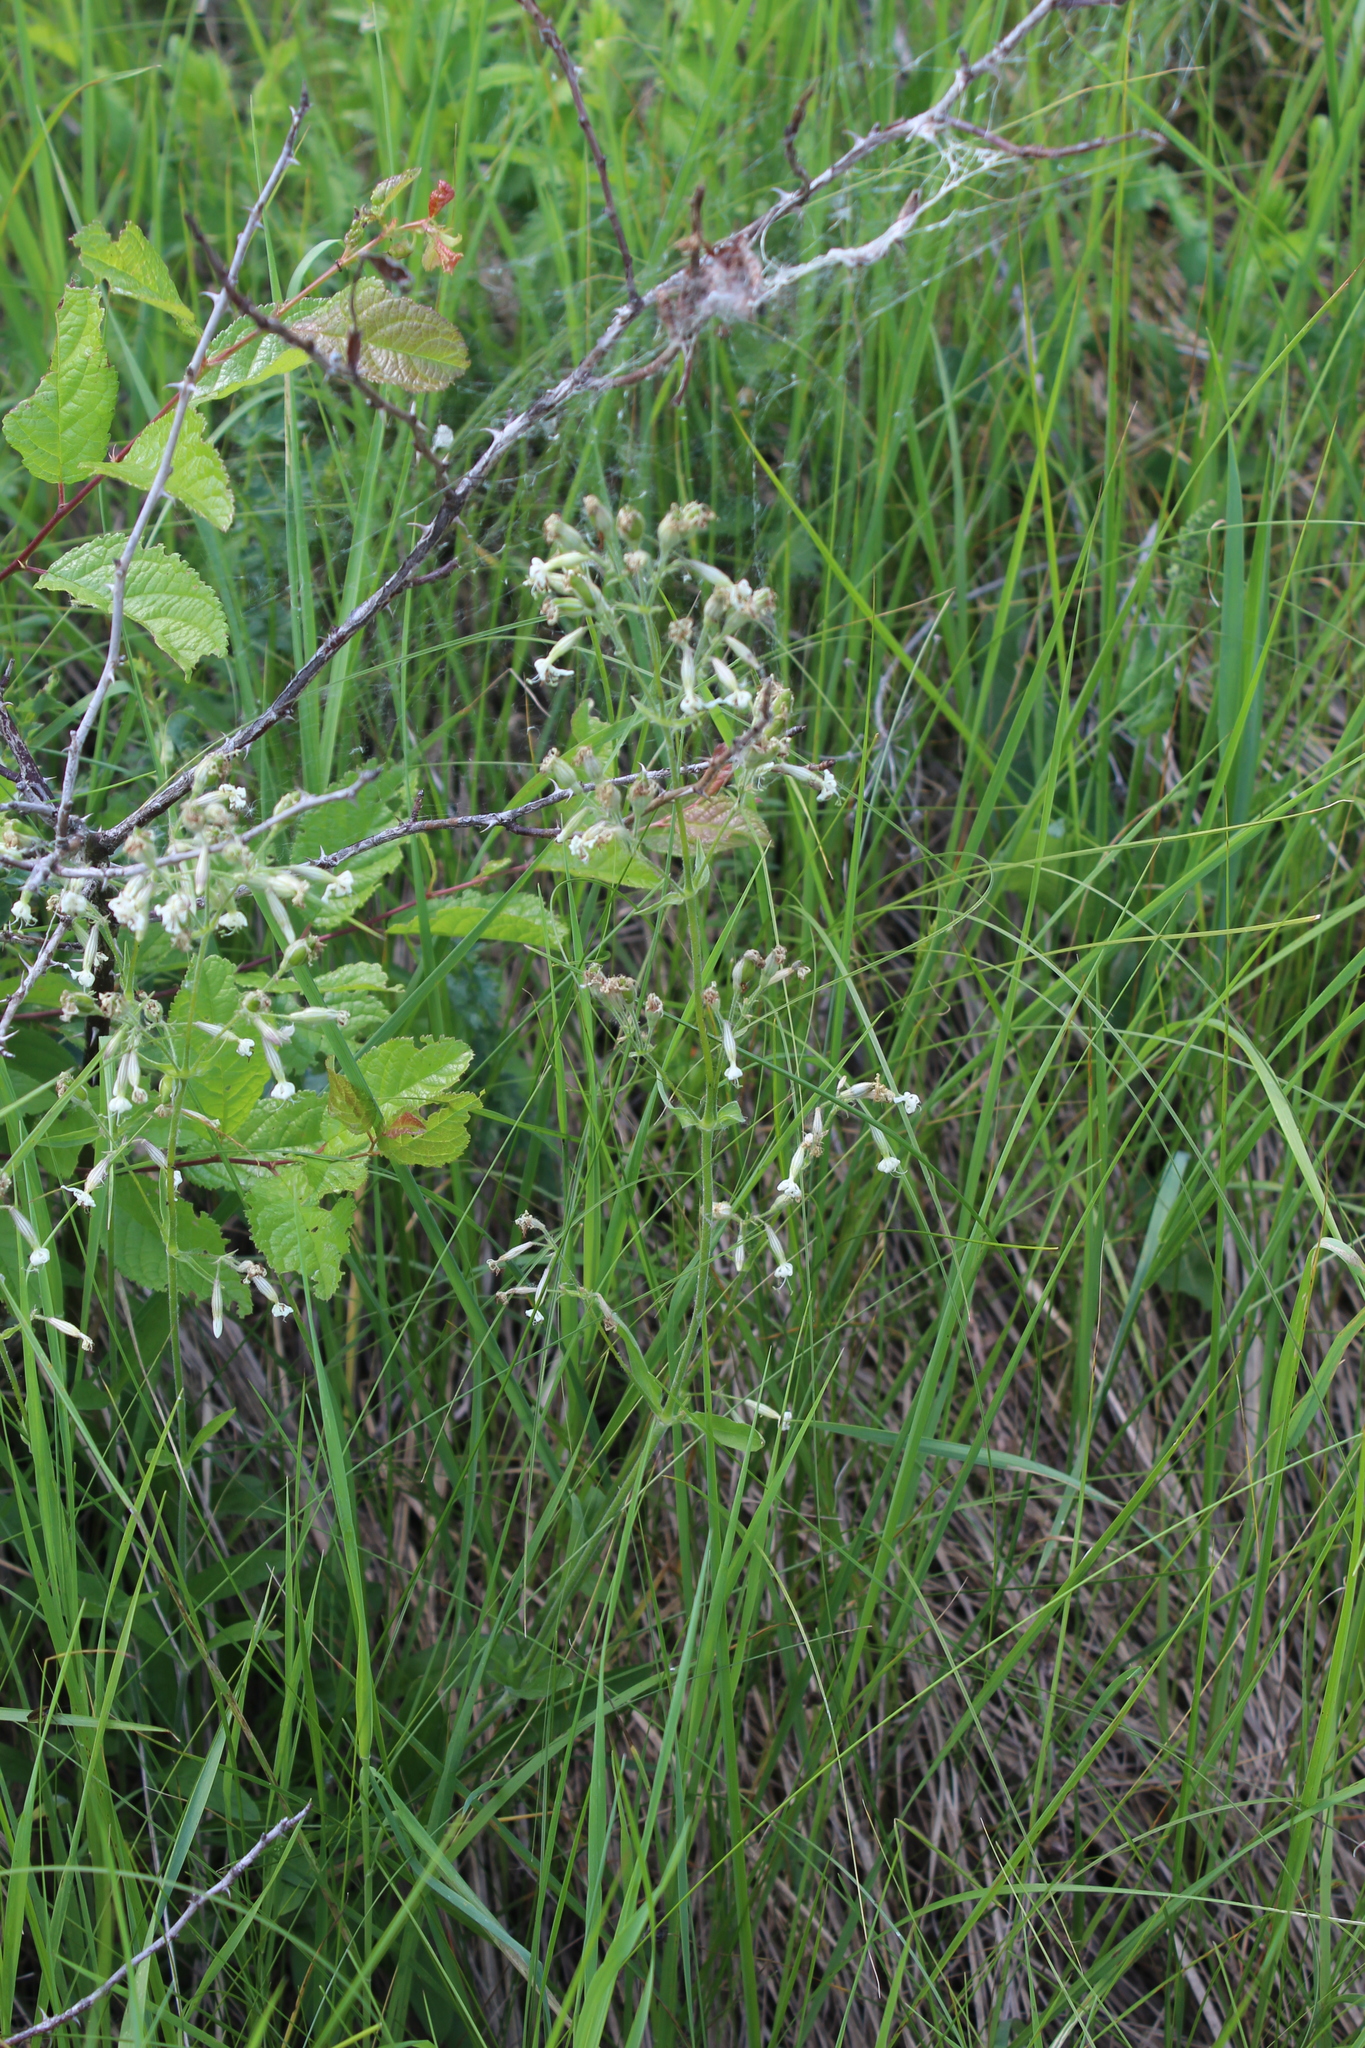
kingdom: Plantae
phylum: Tracheophyta
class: Magnoliopsida
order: Caryophyllales
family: Caryophyllaceae
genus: Silene
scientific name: Silene nutans
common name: Nottingham catchfly
